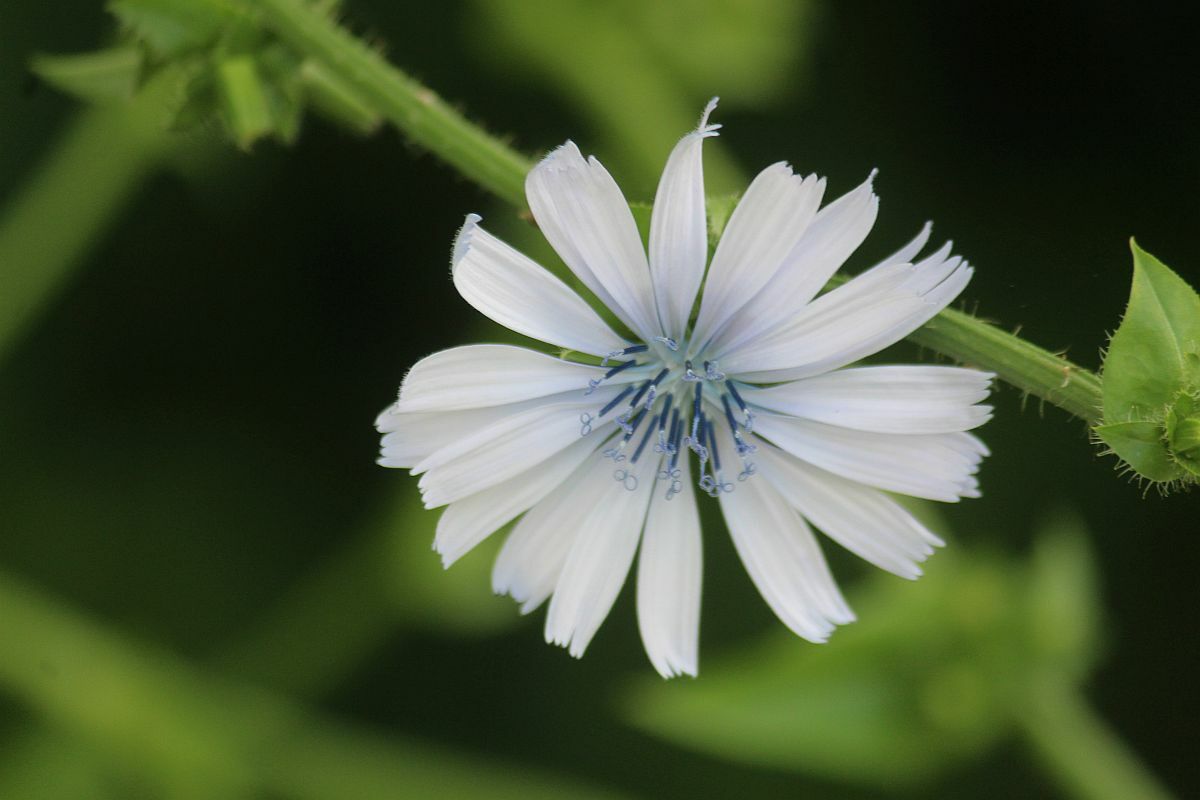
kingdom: Plantae
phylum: Tracheophyta
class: Magnoliopsida
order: Asterales
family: Asteraceae
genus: Cichorium
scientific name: Cichorium intybus
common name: Chicory
